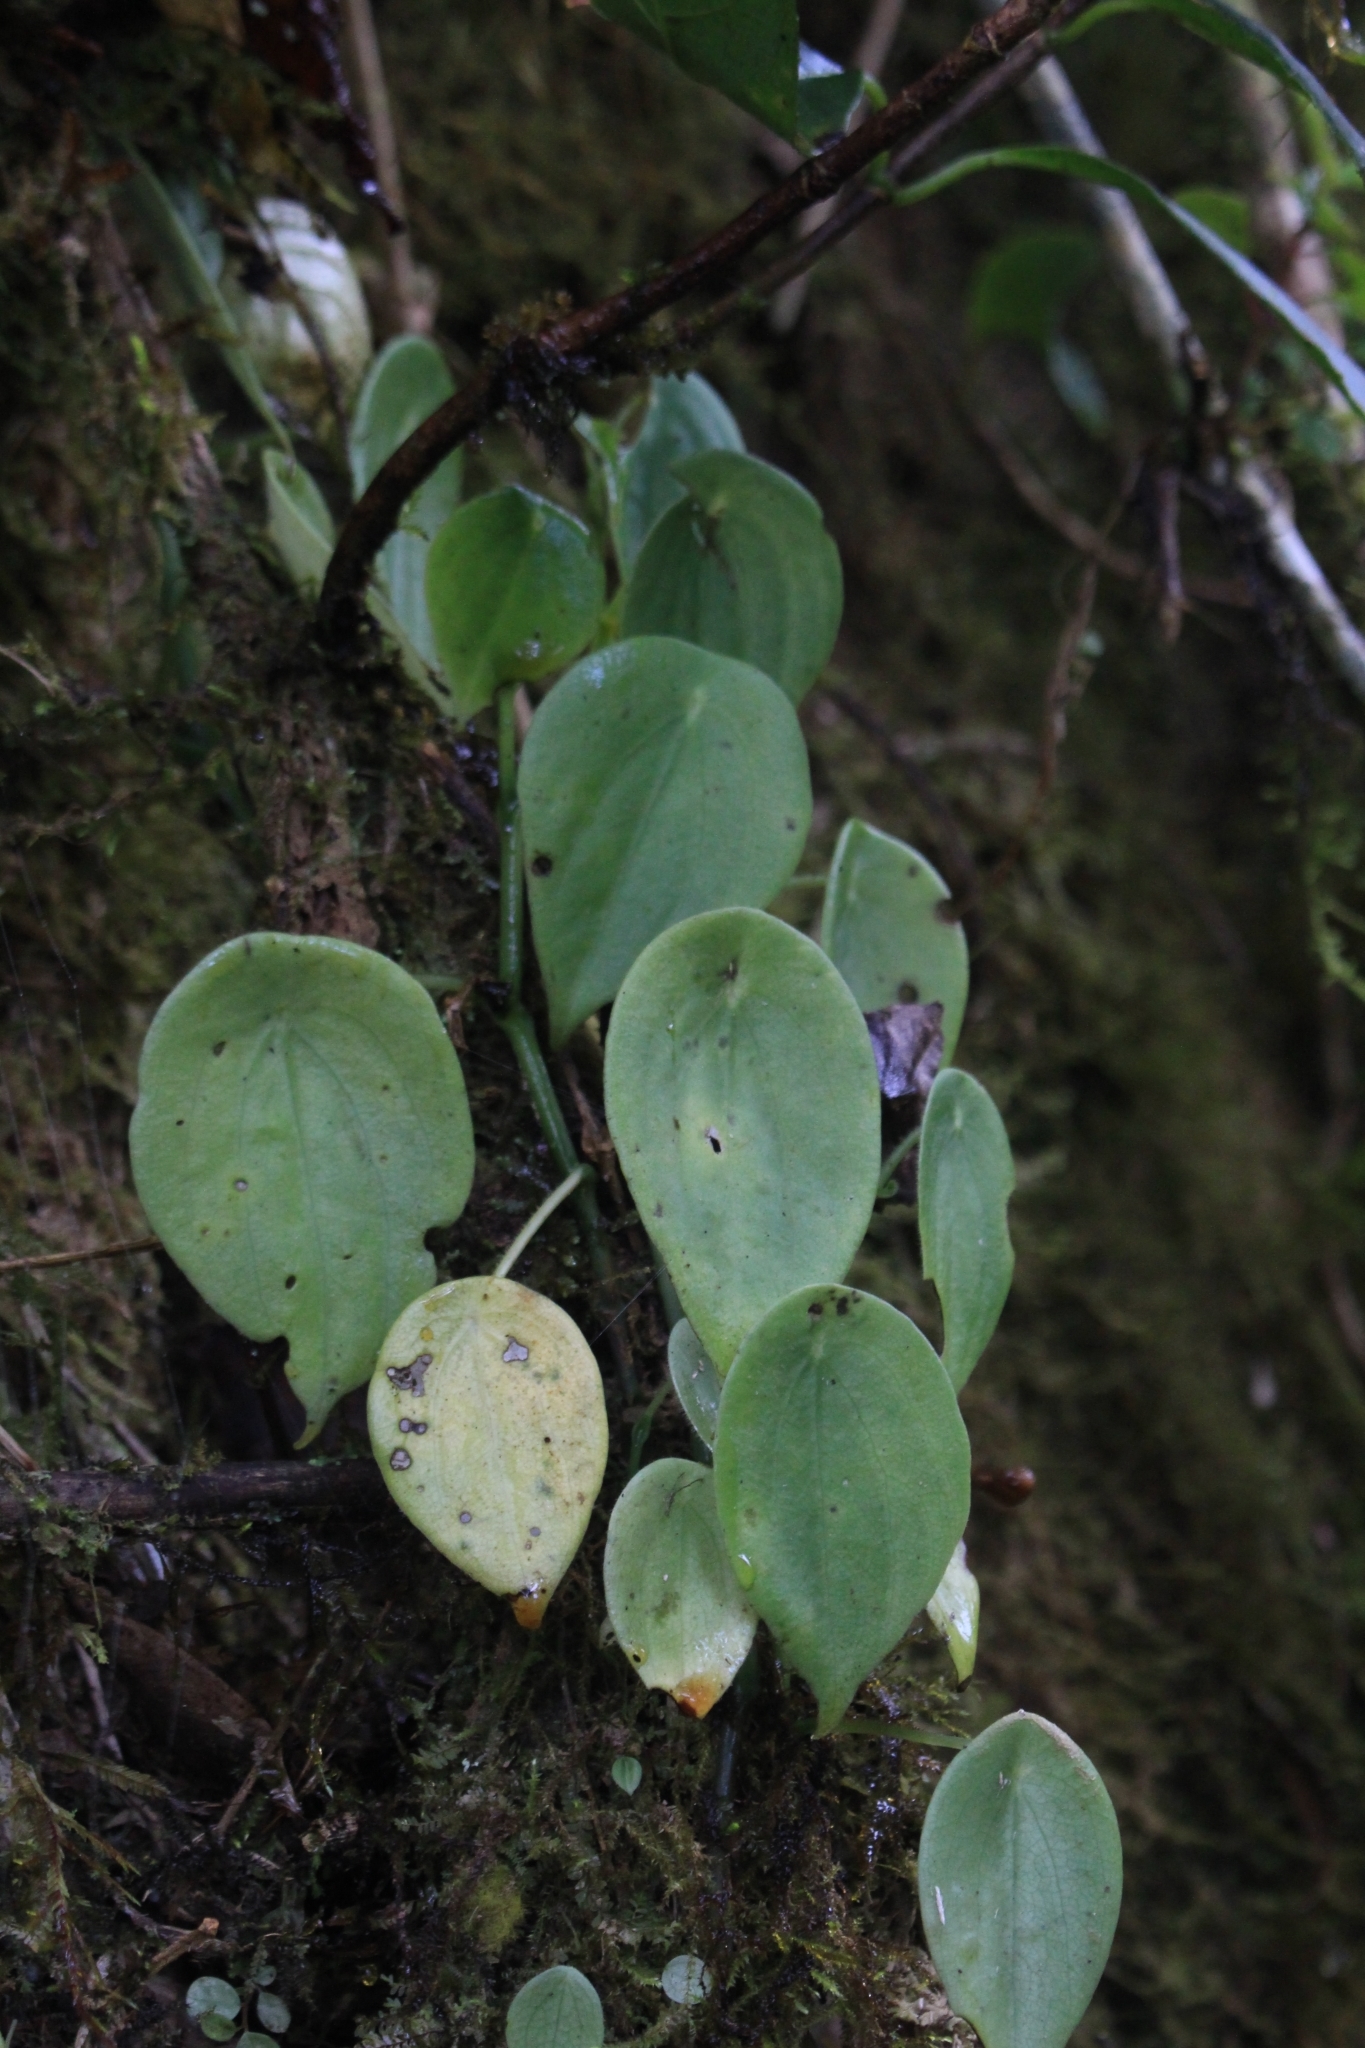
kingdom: Plantae
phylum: Tracheophyta
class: Magnoliopsida
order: Piperales
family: Piperaceae
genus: Peperomia
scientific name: Peperomia amphitricha
